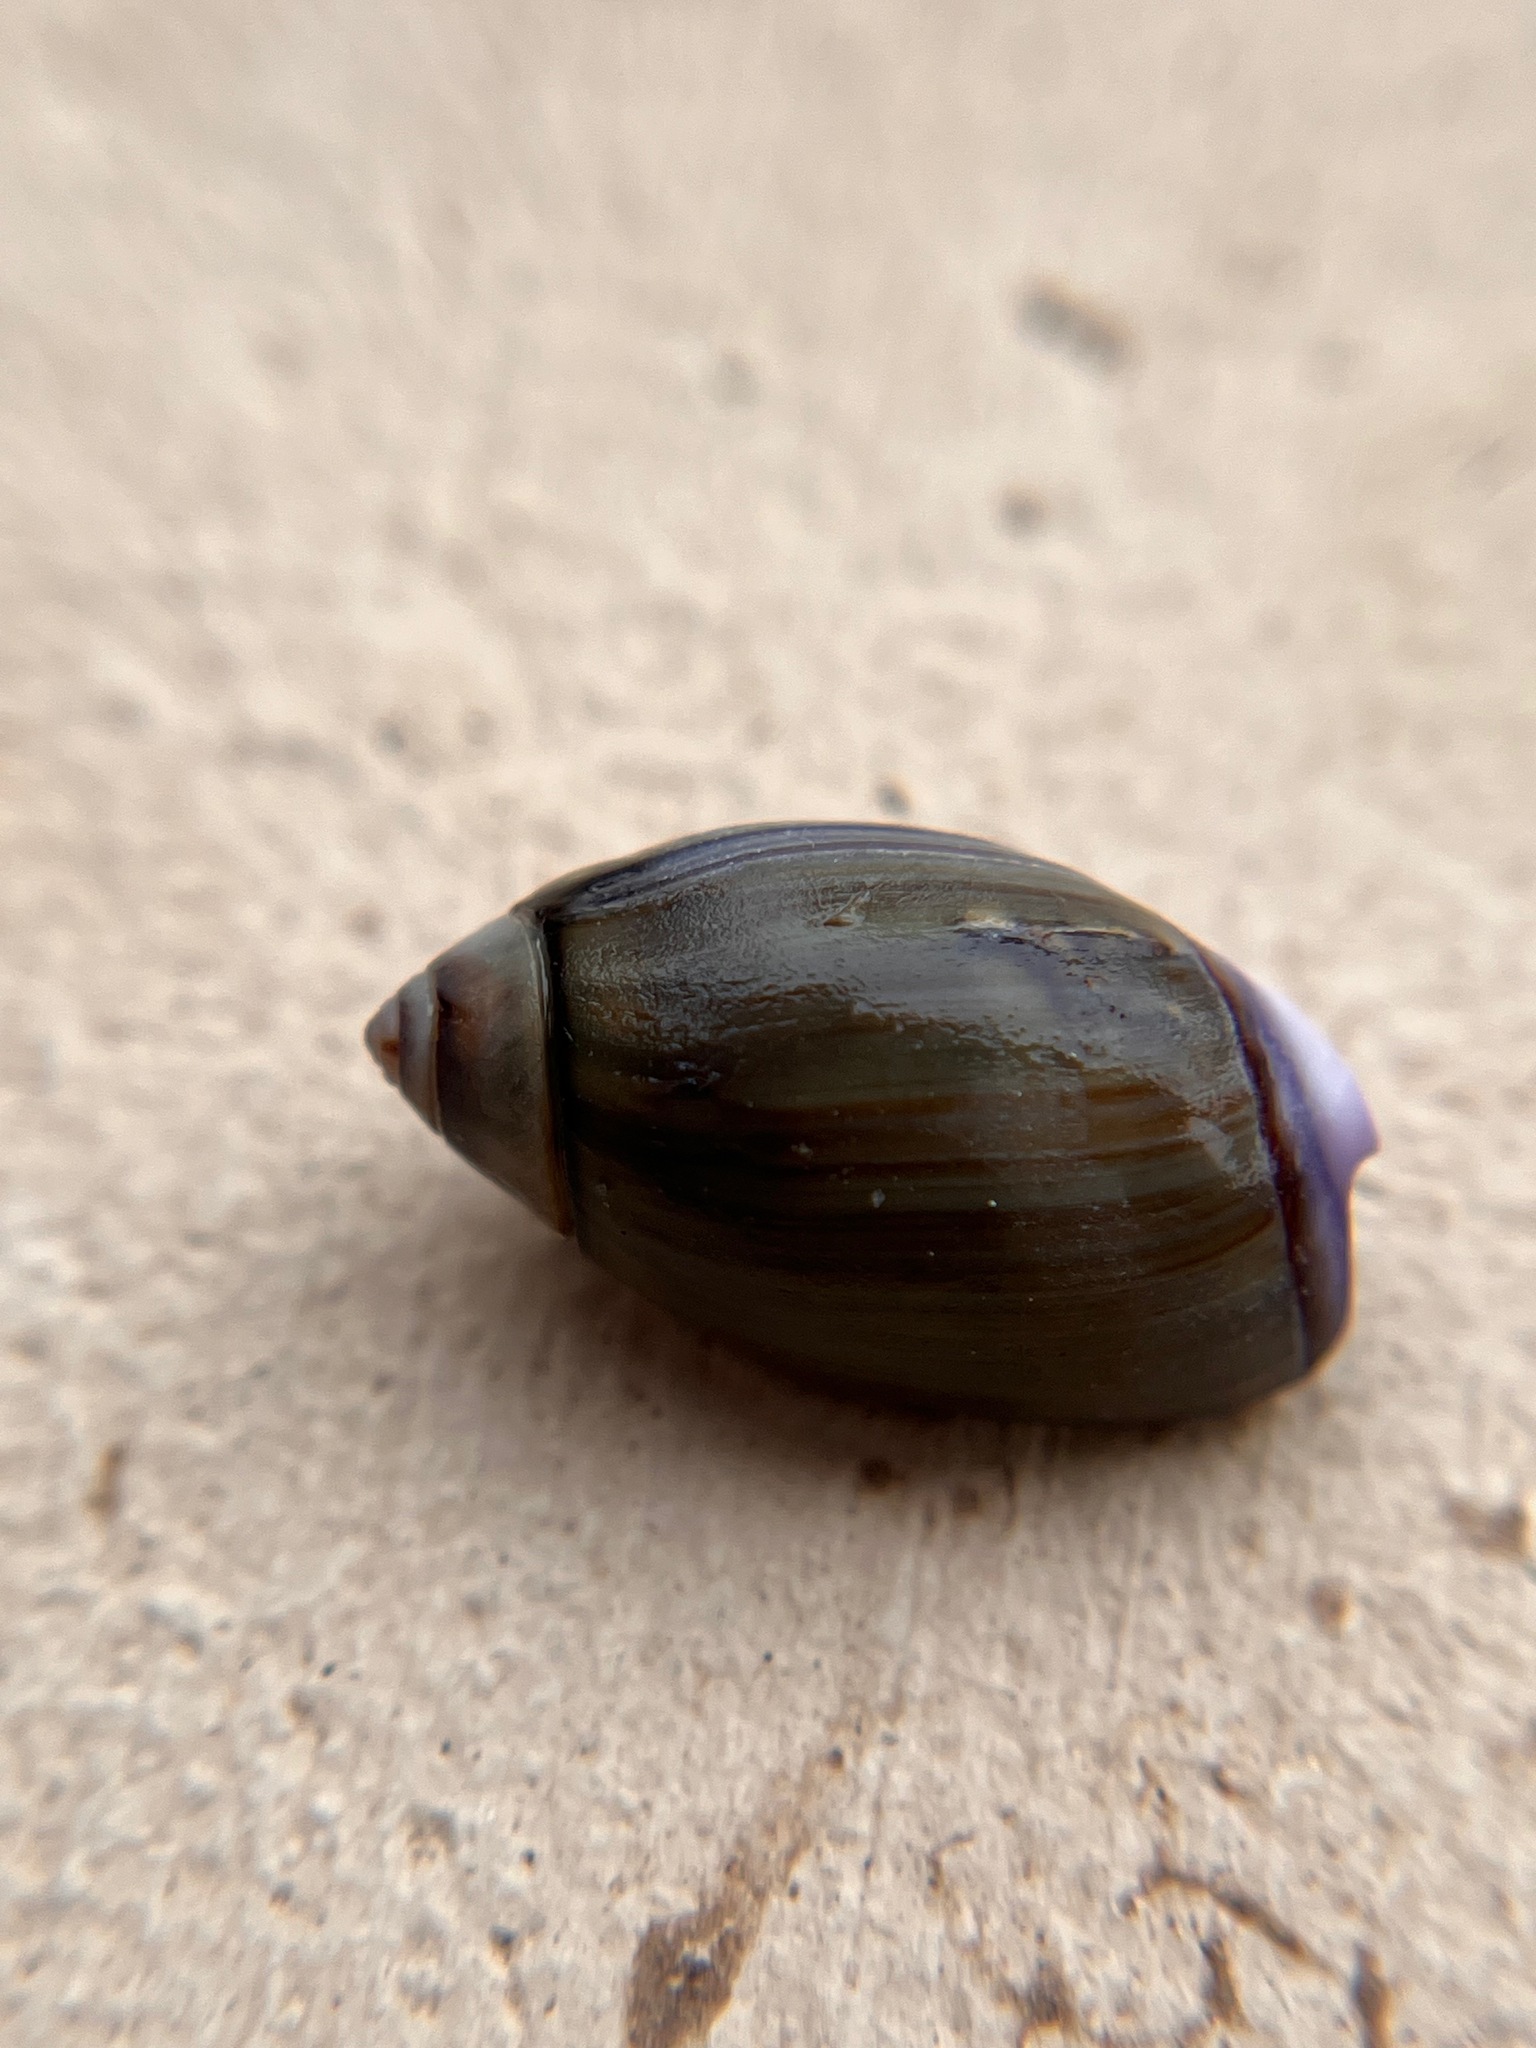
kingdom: Animalia
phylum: Mollusca
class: Gastropoda
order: Neogastropoda
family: Olividae
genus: Callianax
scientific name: Callianax biplicata
